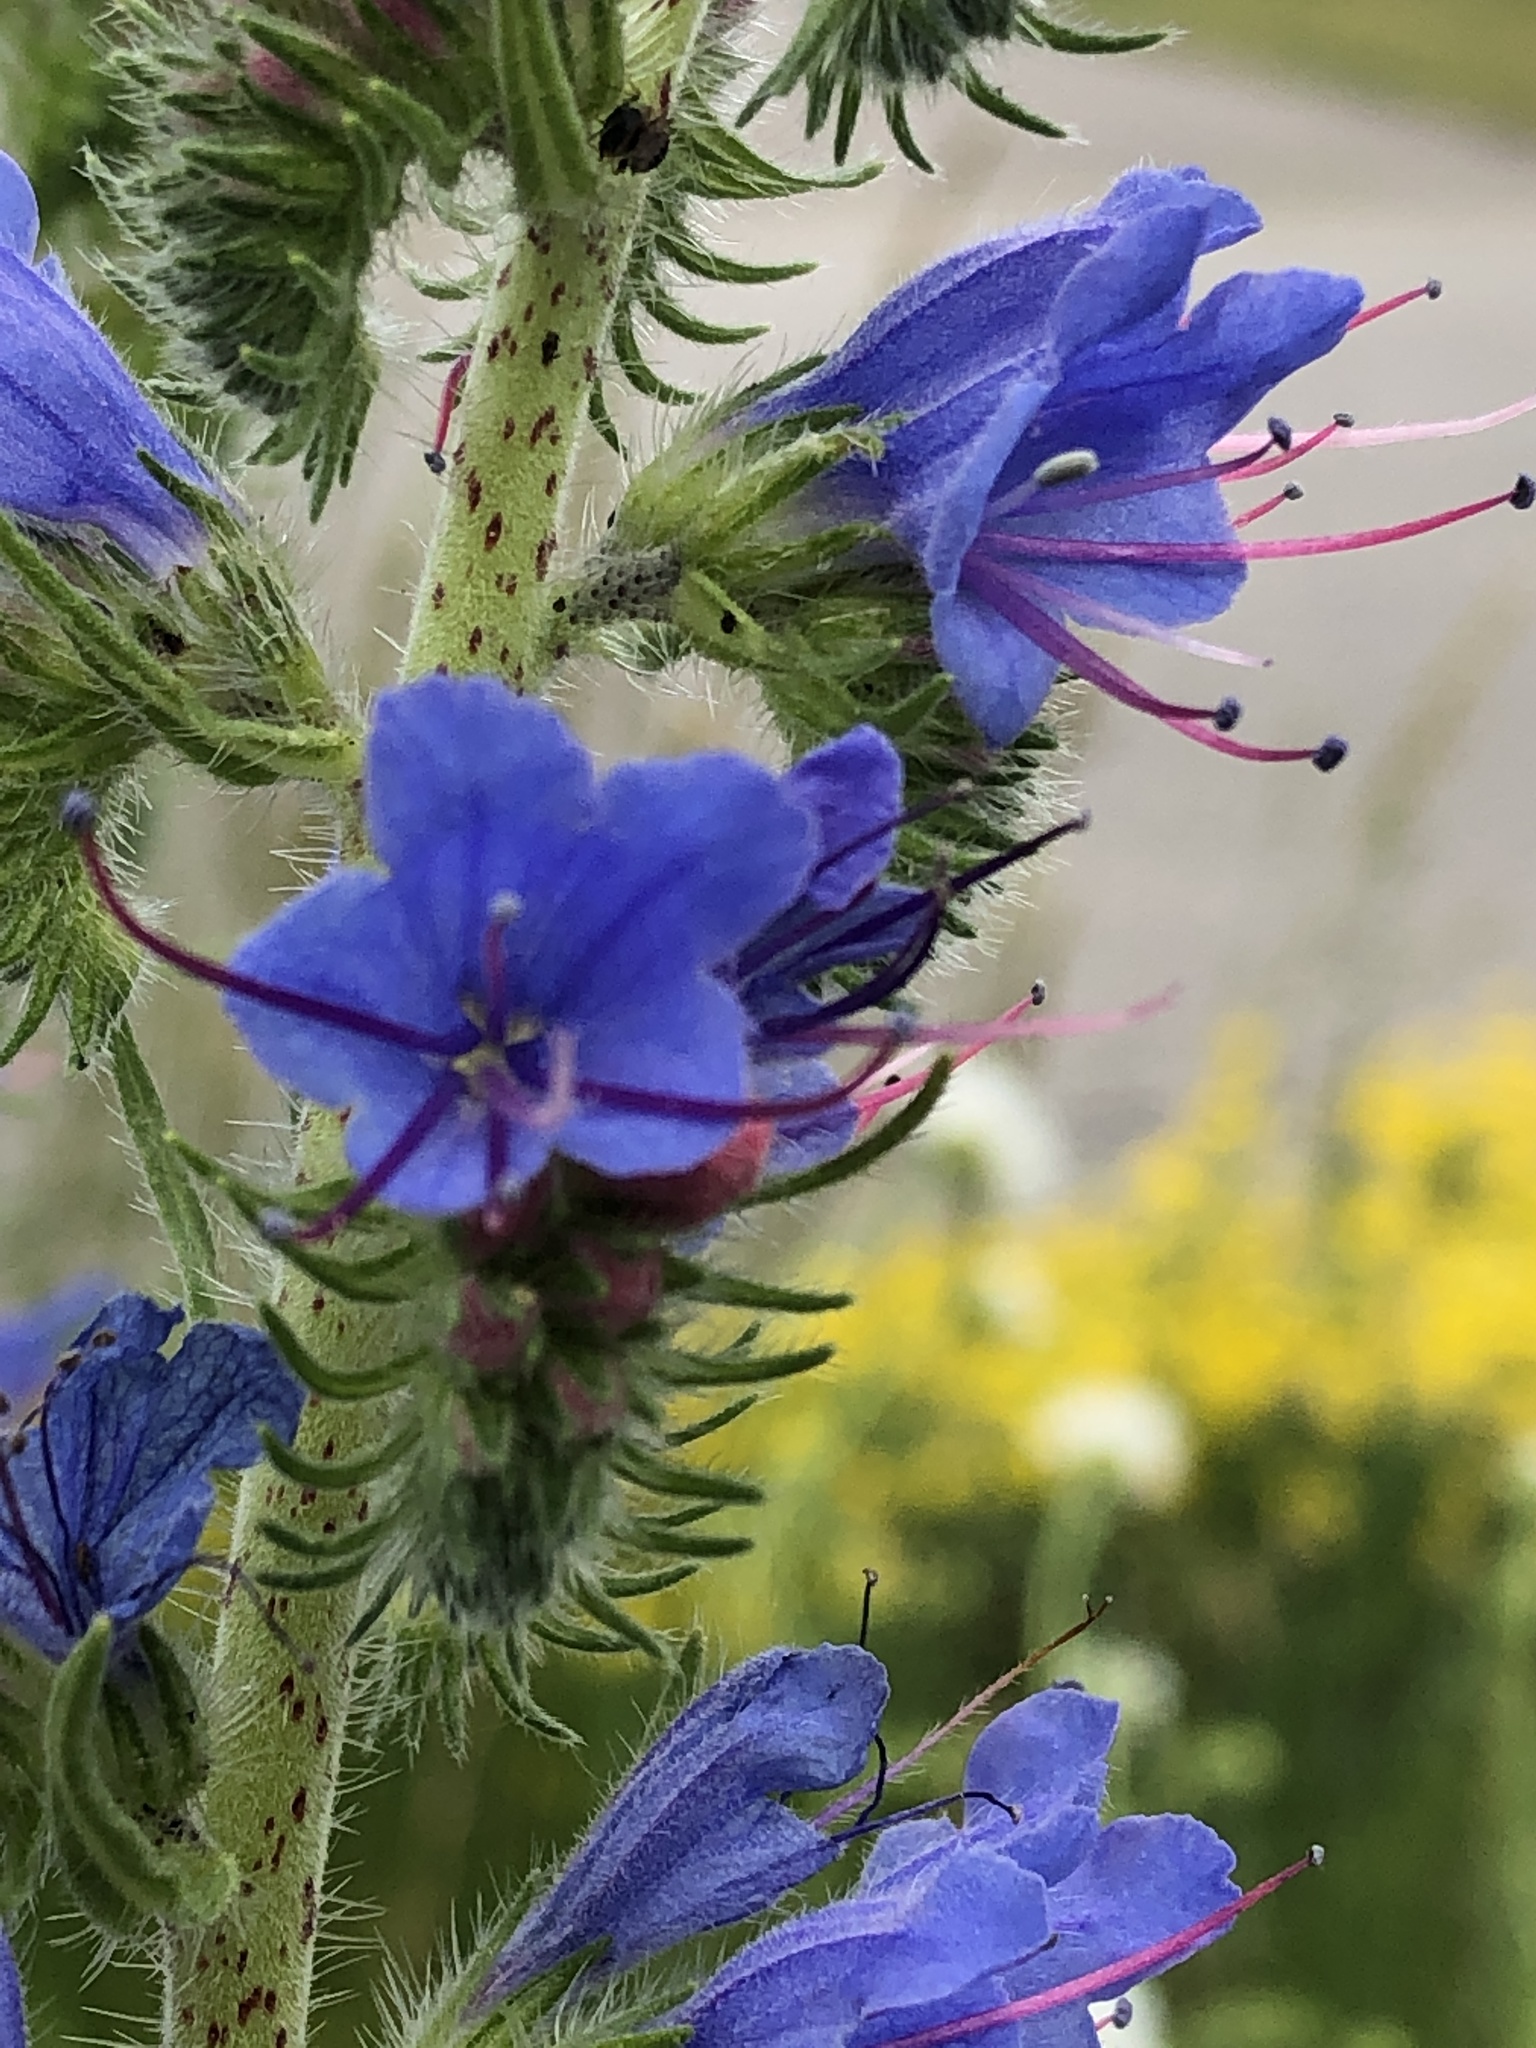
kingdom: Plantae
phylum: Tracheophyta
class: Magnoliopsida
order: Boraginales
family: Boraginaceae
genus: Echium
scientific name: Echium vulgare
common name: Common viper's bugloss
